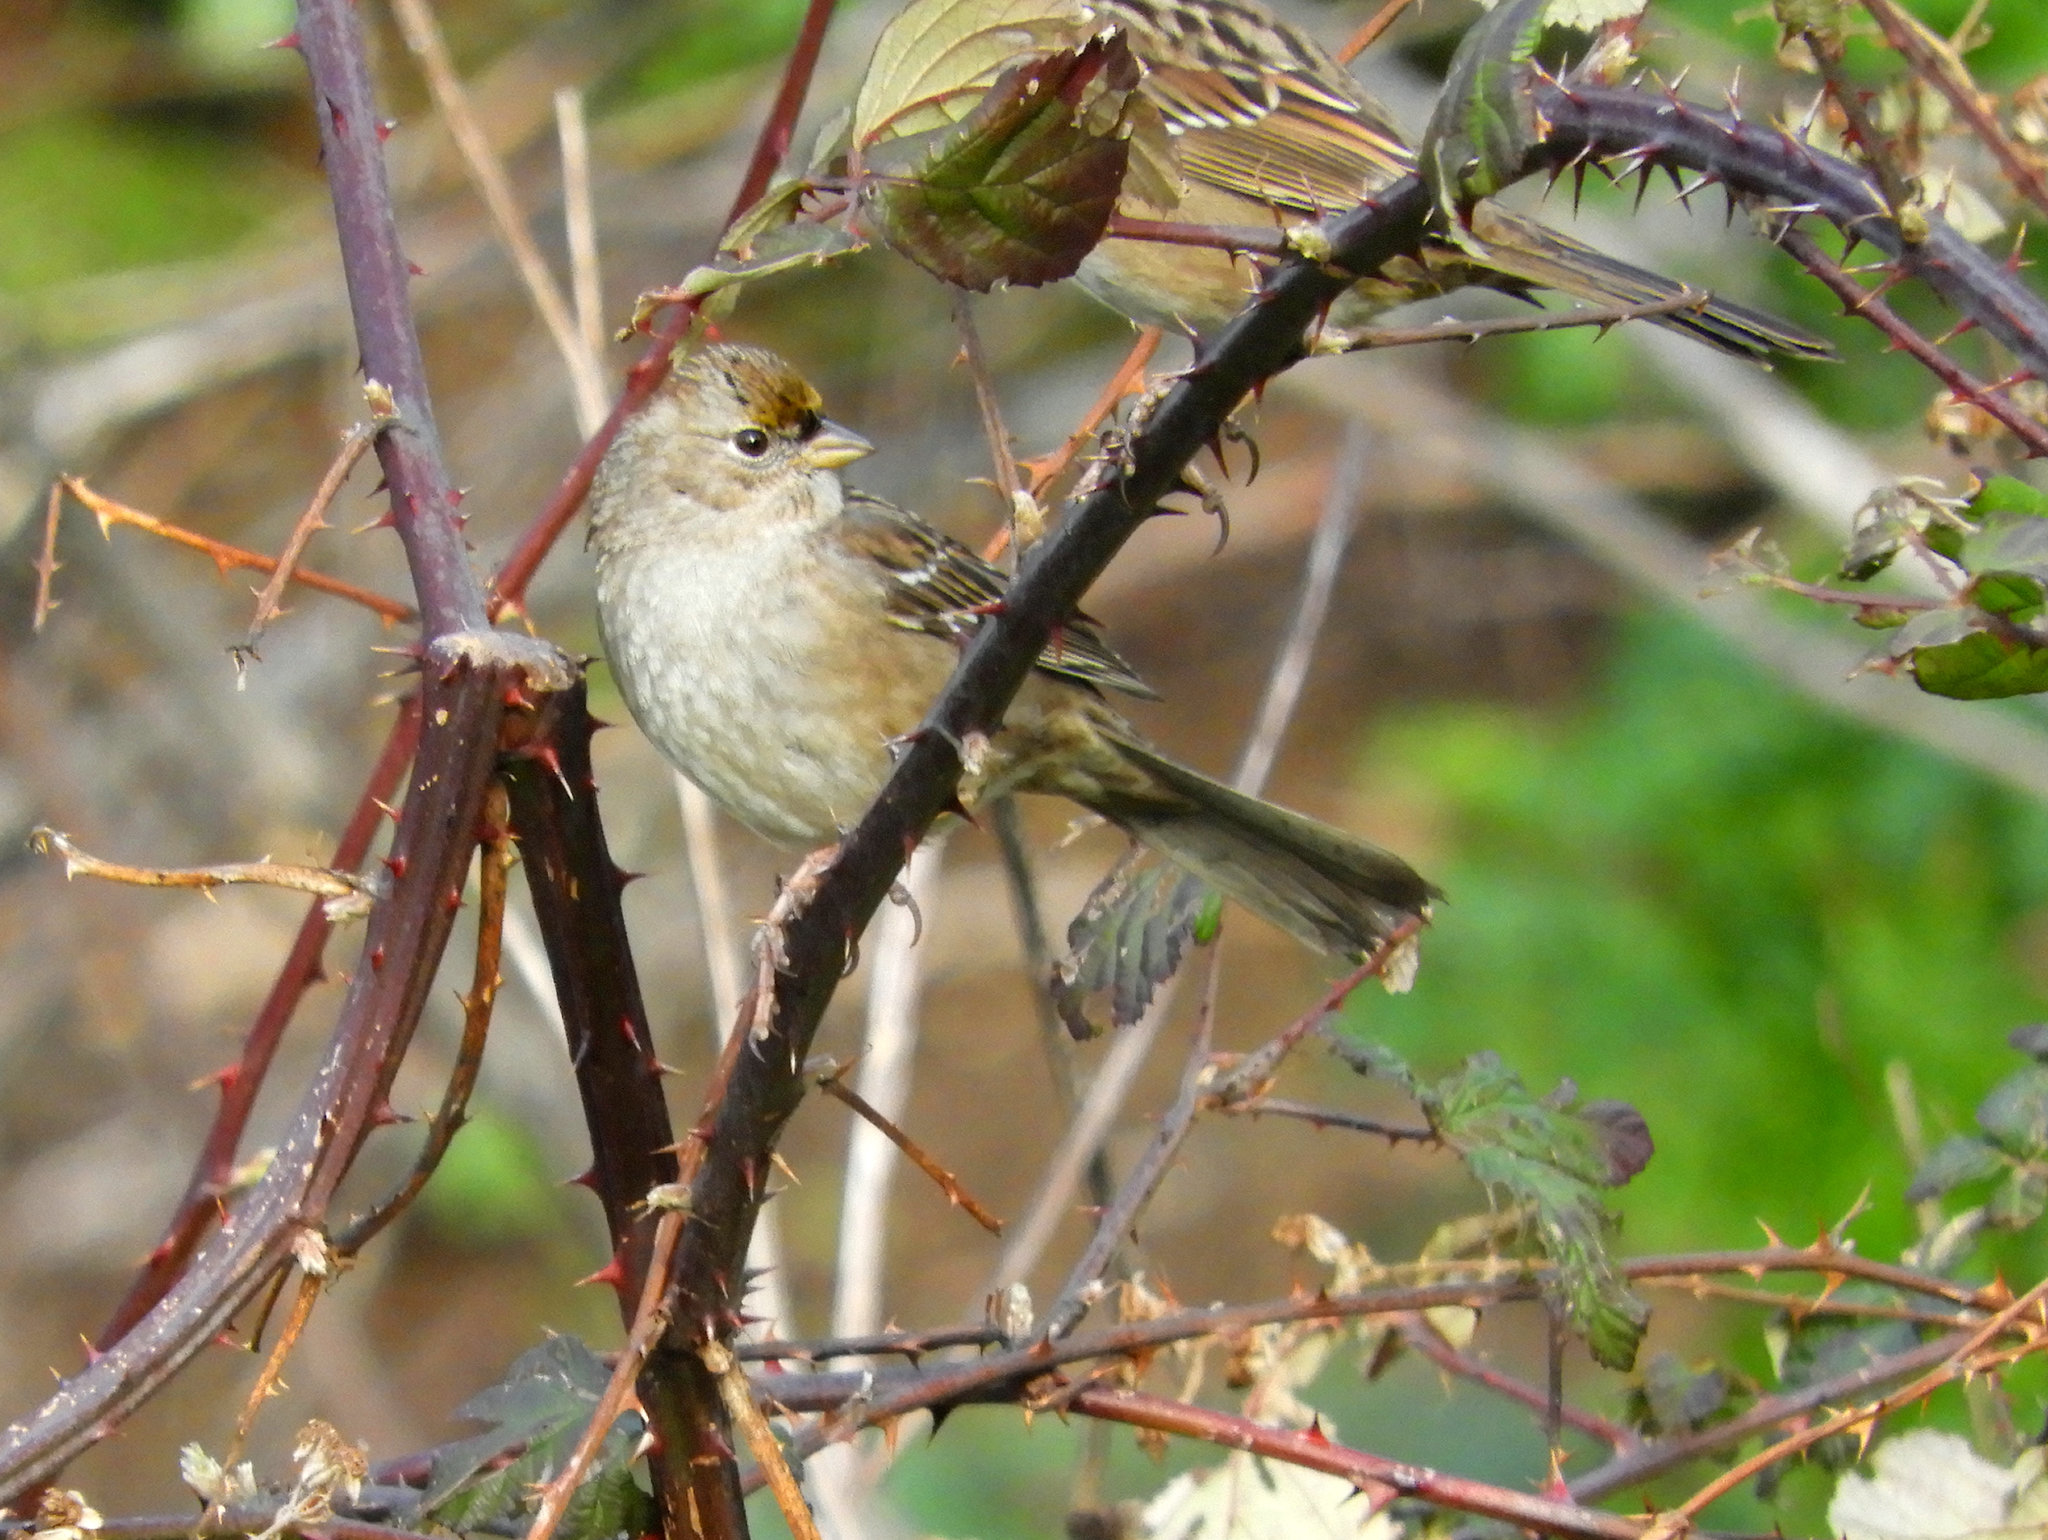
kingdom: Animalia
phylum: Chordata
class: Aves
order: Passeriformes
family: Passerellidae
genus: Zonotrichia
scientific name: Zonotrichia atricapilla
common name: Golden-crowned sparrow
